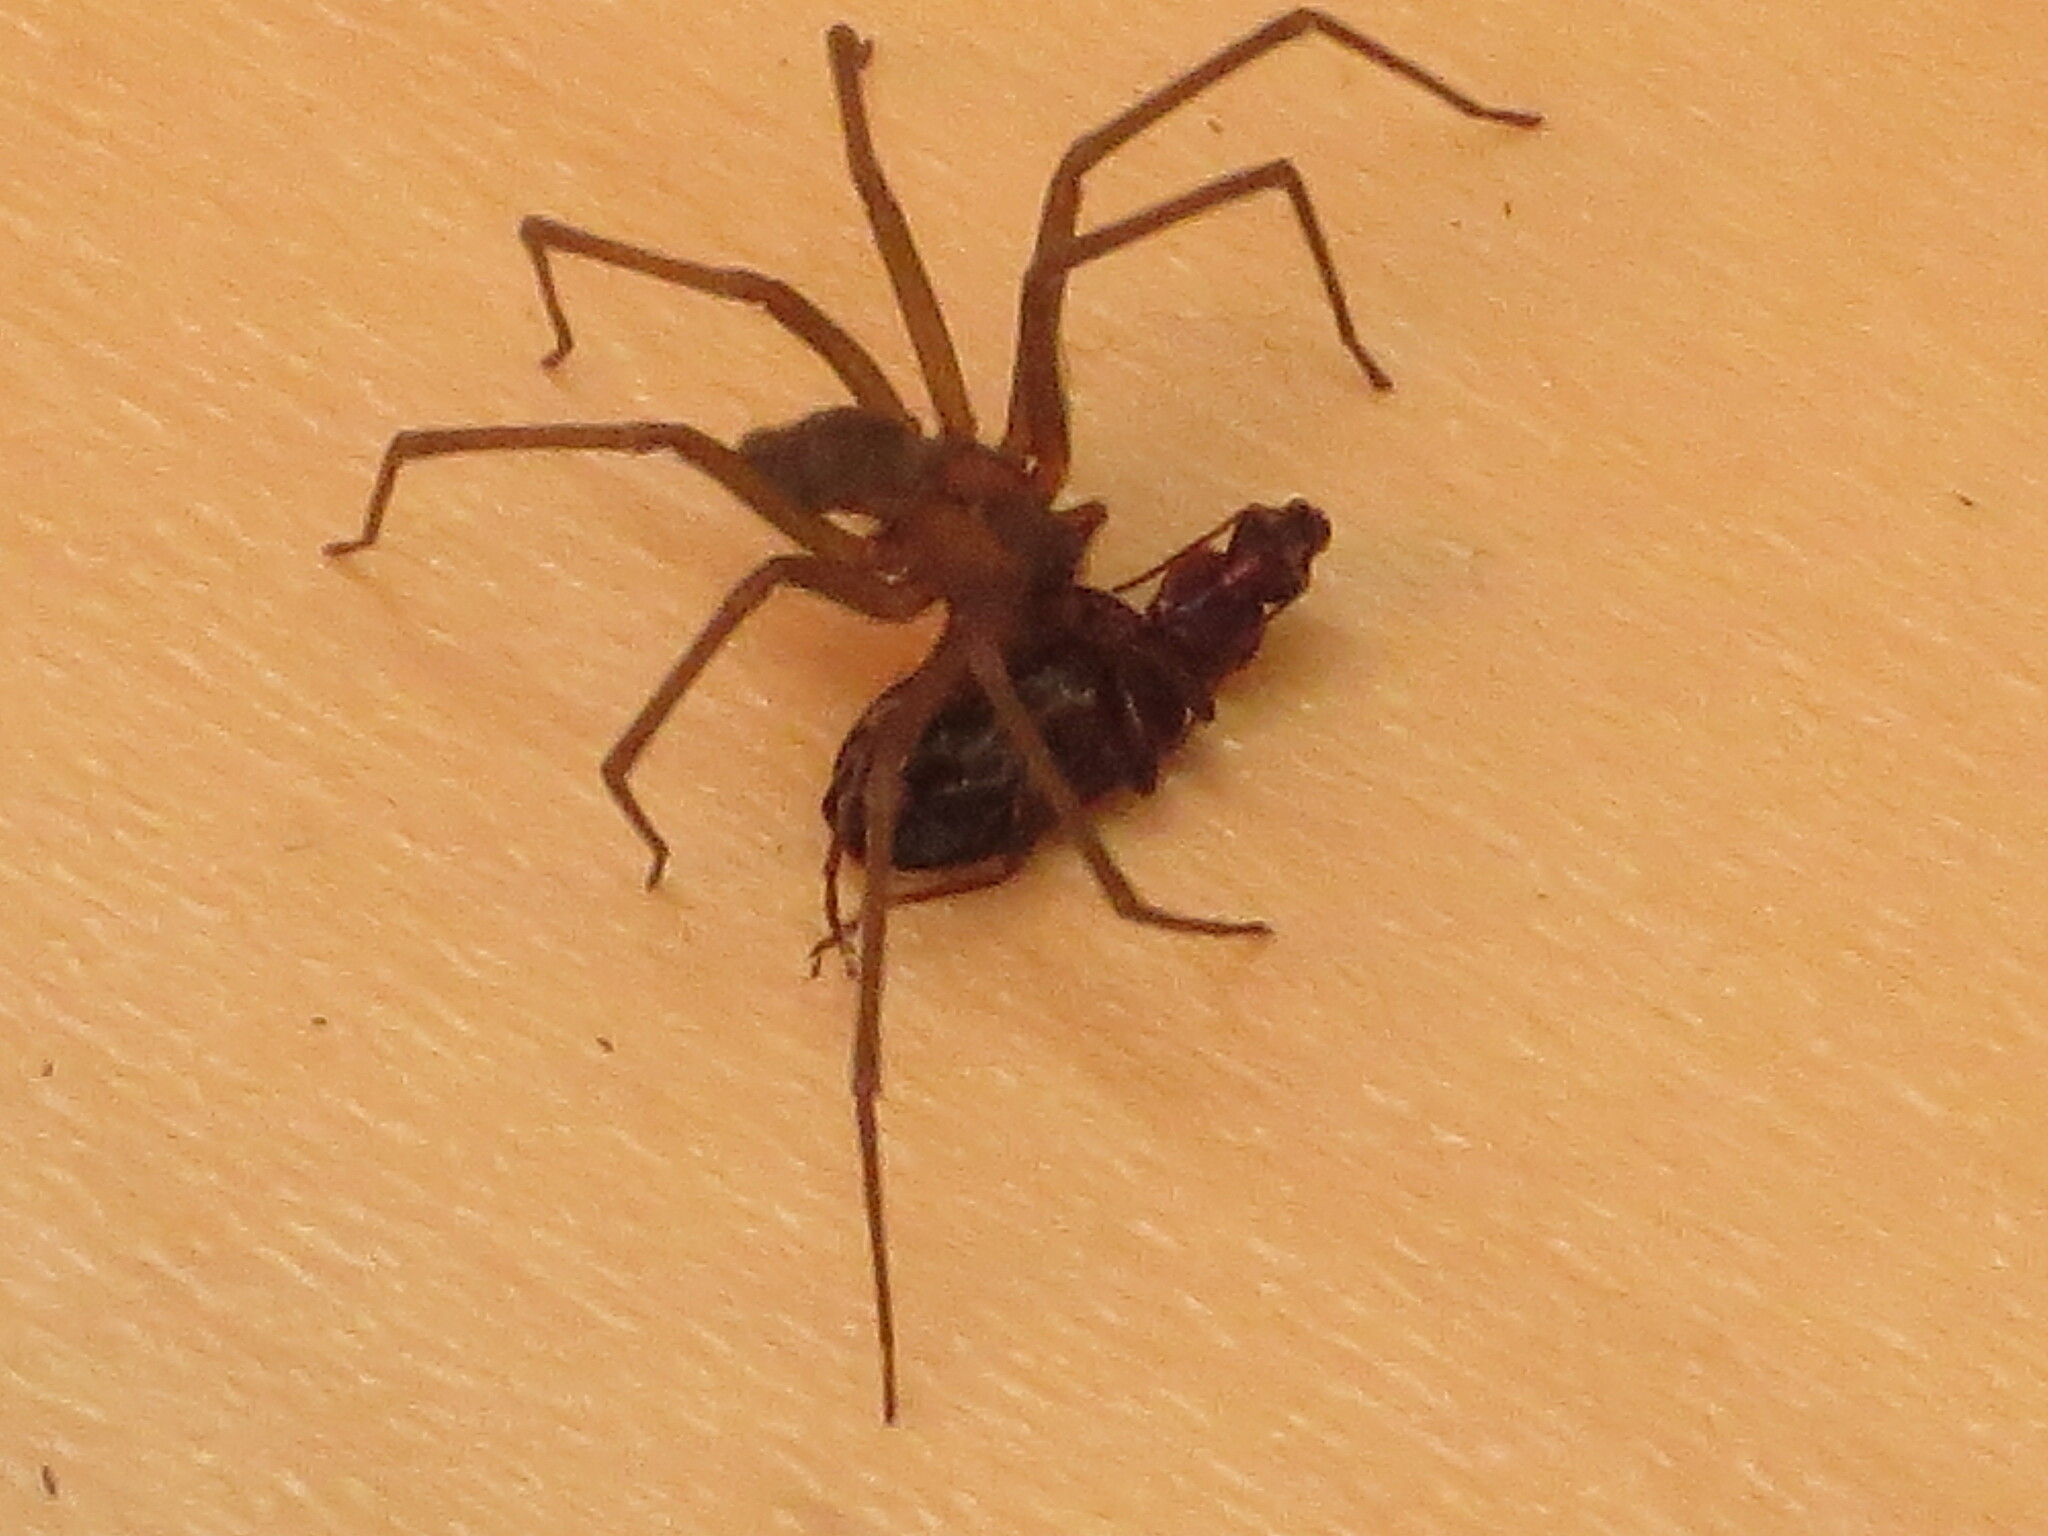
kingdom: Animalia
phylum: Arthropoda
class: Arachnida
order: Araneae
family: Sicariidae
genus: Loxosceles
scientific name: Loxosceles devia
